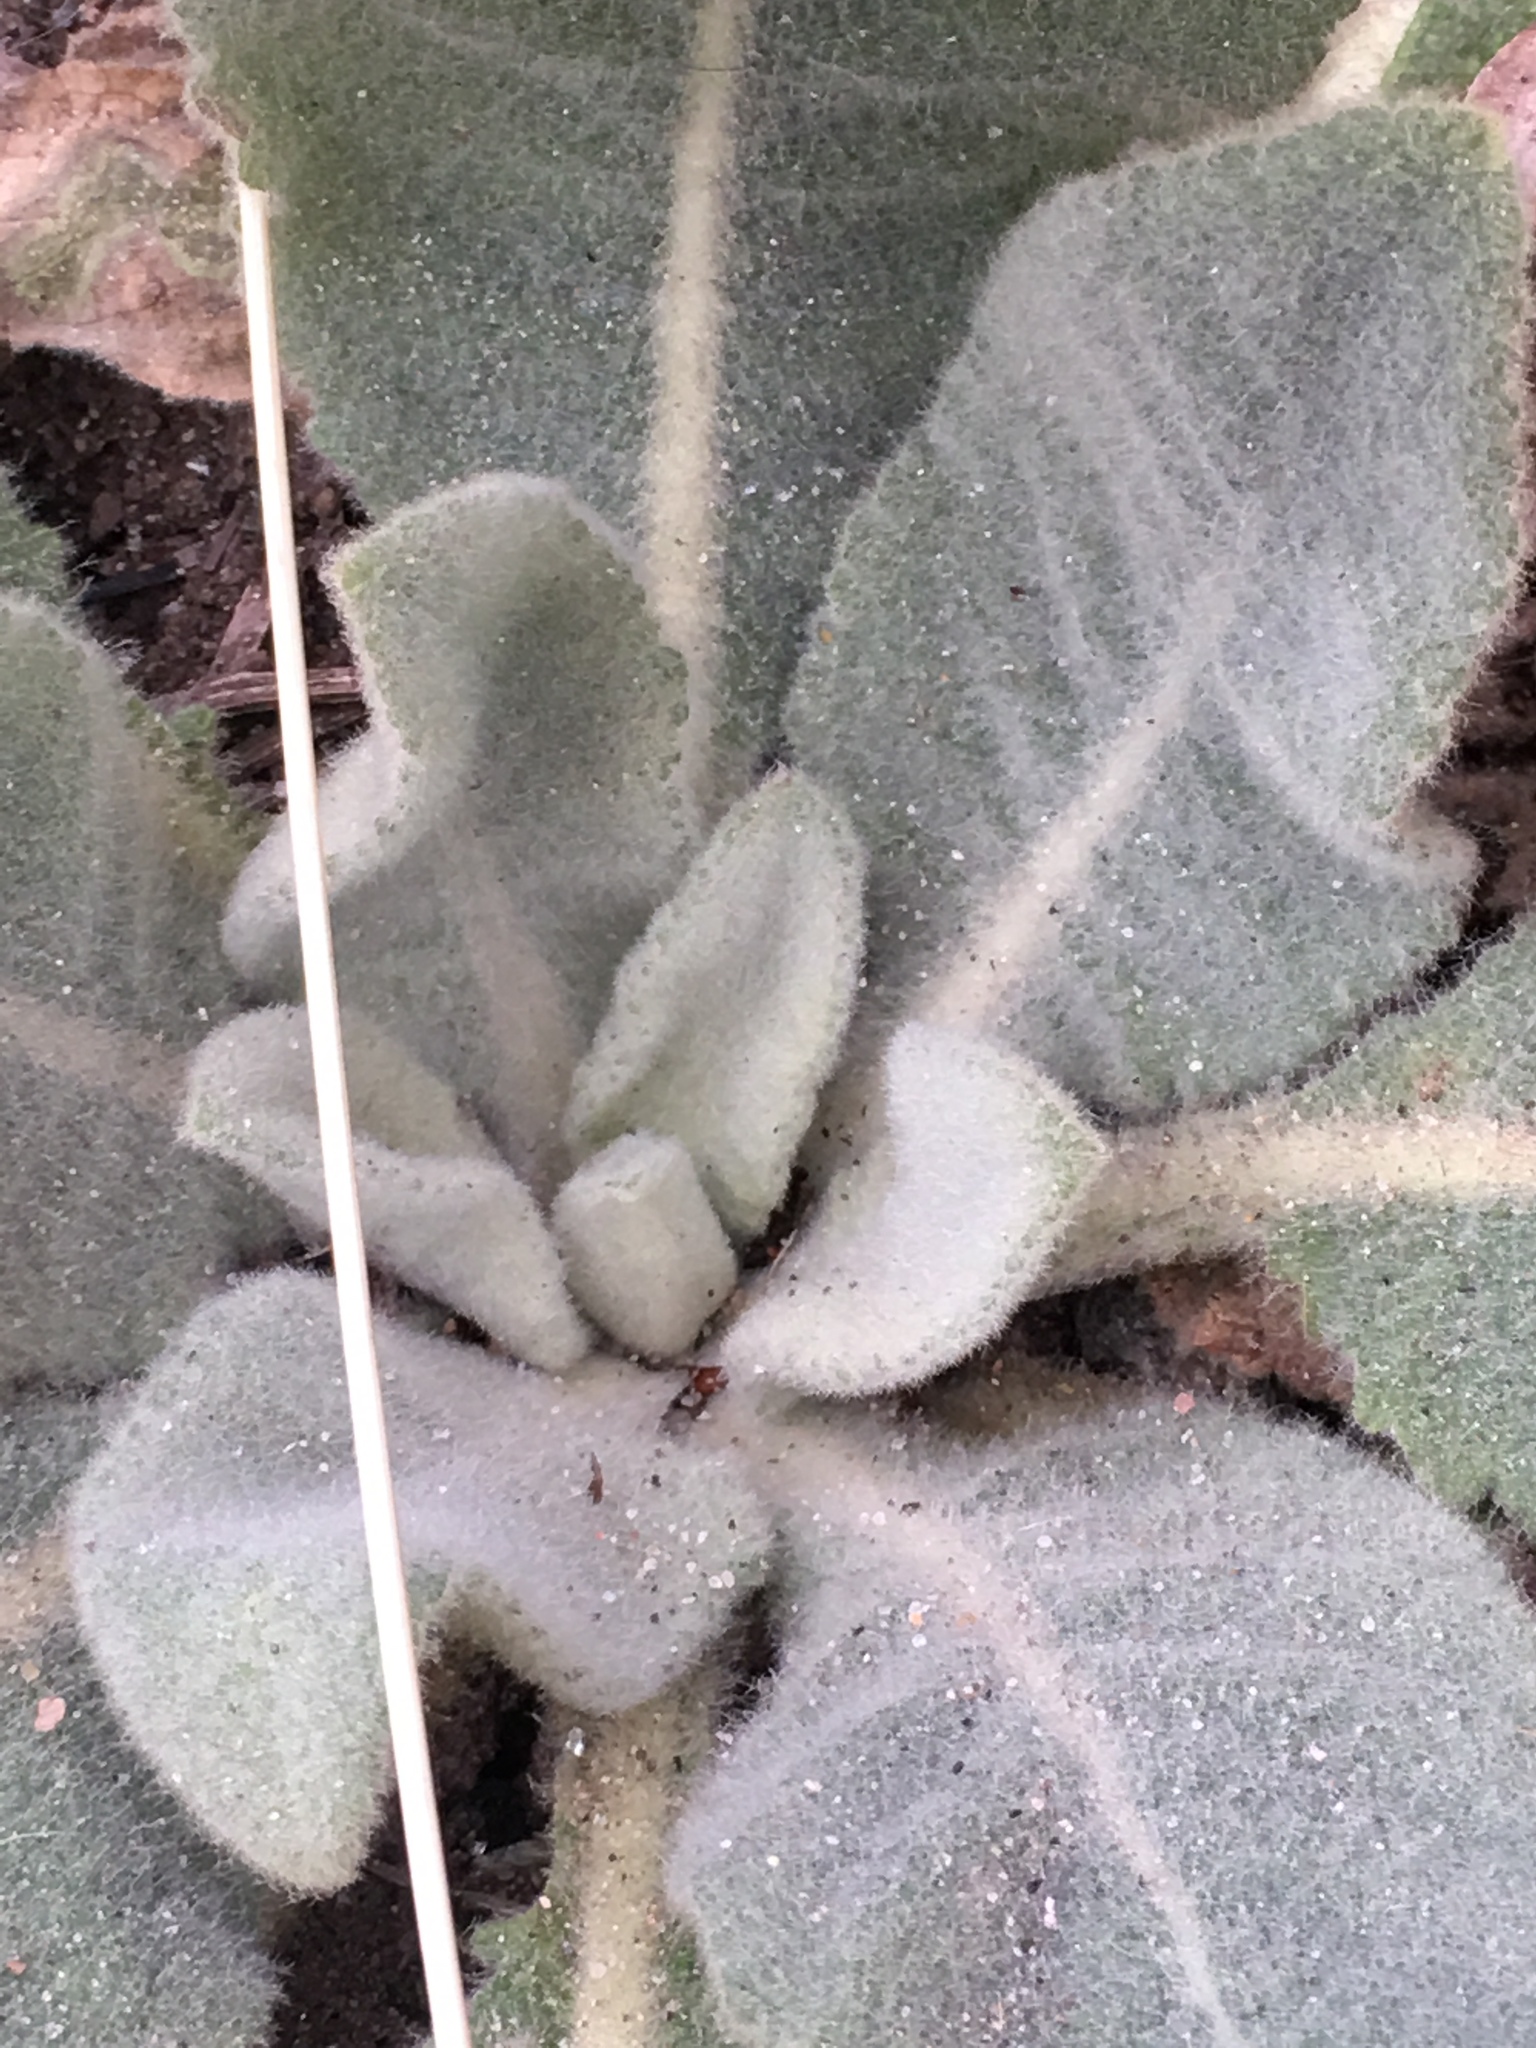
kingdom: Plantae
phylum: Tracheophyta
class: Magnoliopsida
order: Lamiales
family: Scrophulariaceae
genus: Verbascum
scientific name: Verbascum thapsus
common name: Common mullein
